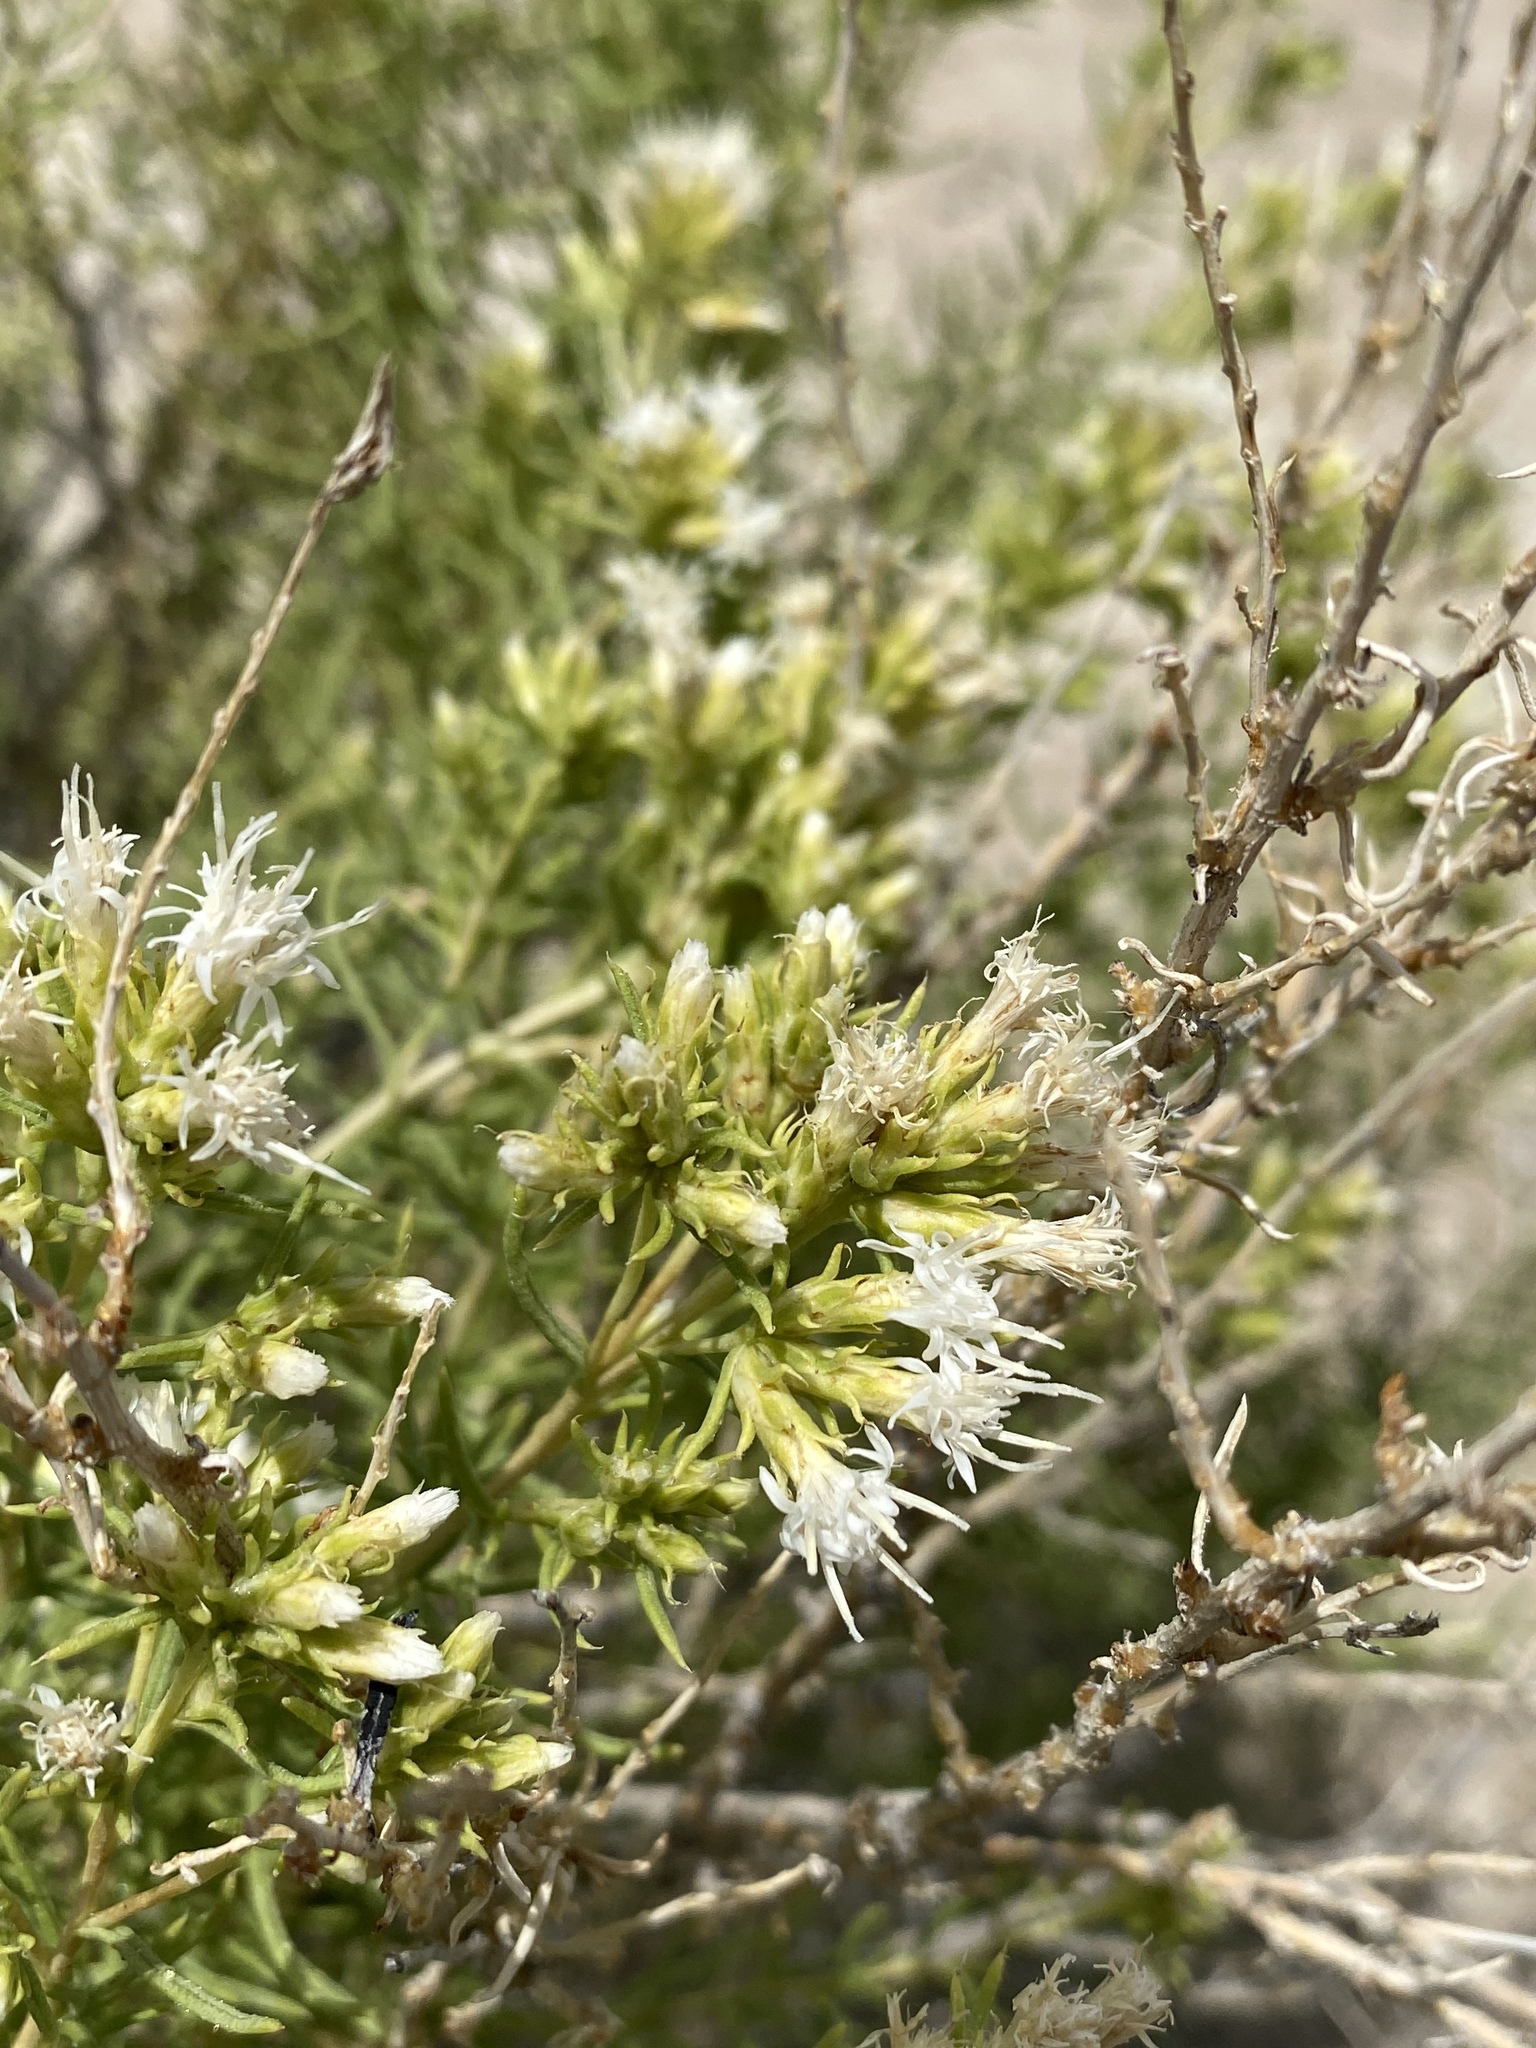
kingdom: Plantae
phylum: Tracheophyta
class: Magnoliopsida
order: Asterales
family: Asteraceae
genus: Ericameria
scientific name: Ericameria albida
